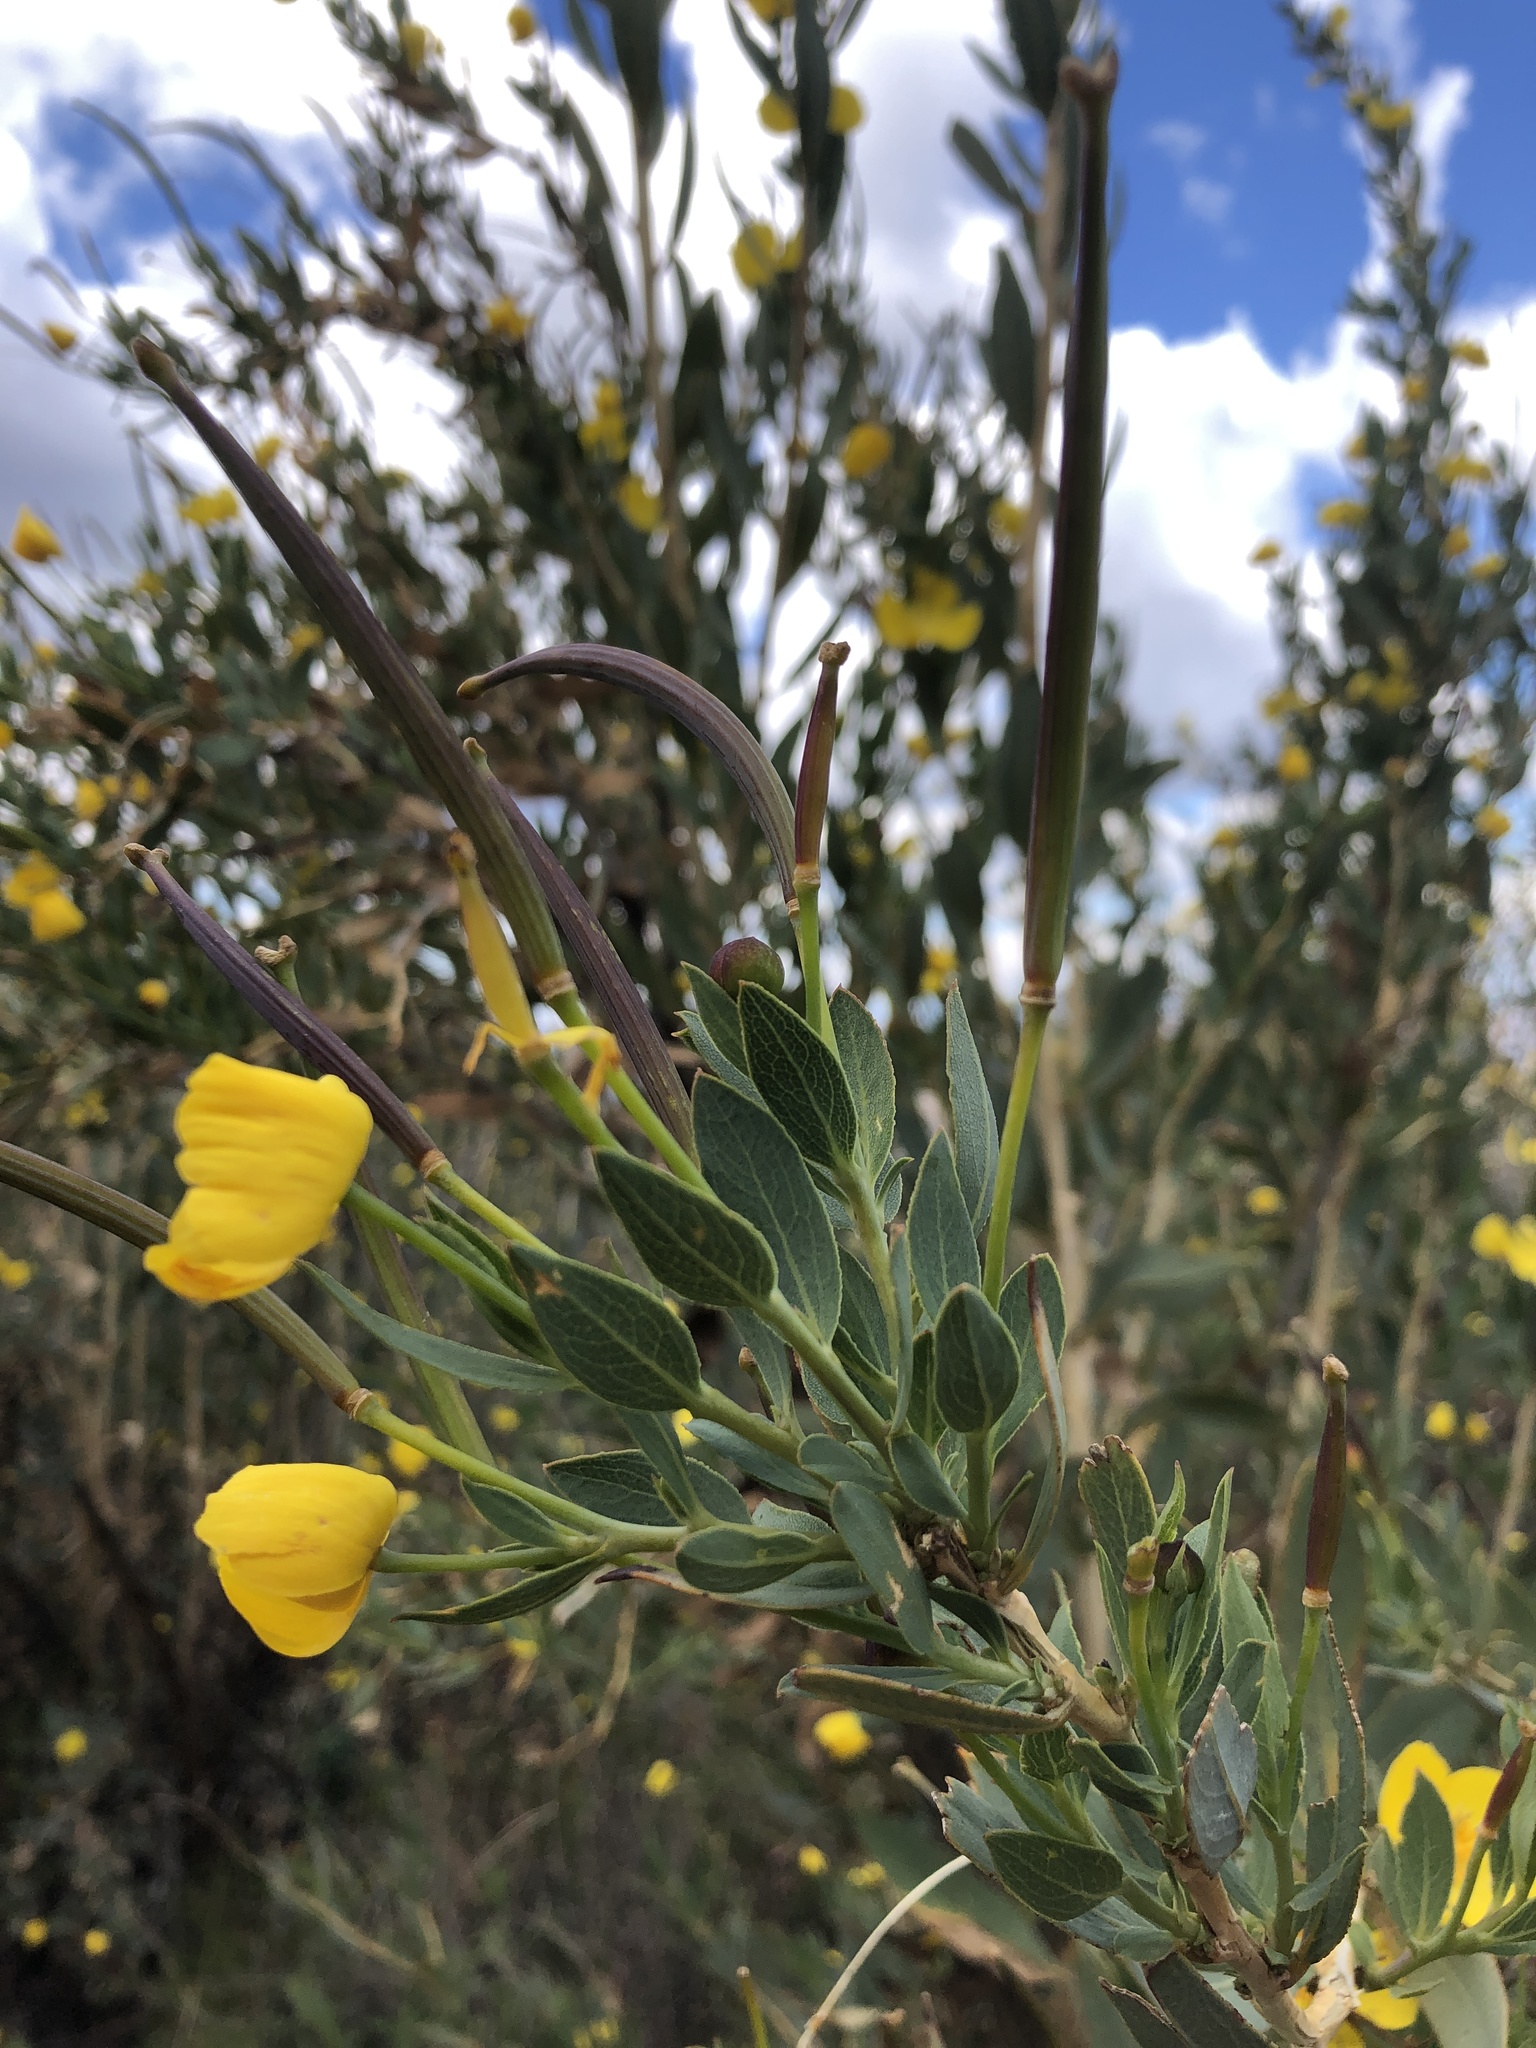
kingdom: Plantae
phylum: Tracheophyta
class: Magnoliopsida
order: Ranunculales
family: Papaveraceae
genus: Dendromecon
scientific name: Dendromecon rigida
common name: Tree poppy
